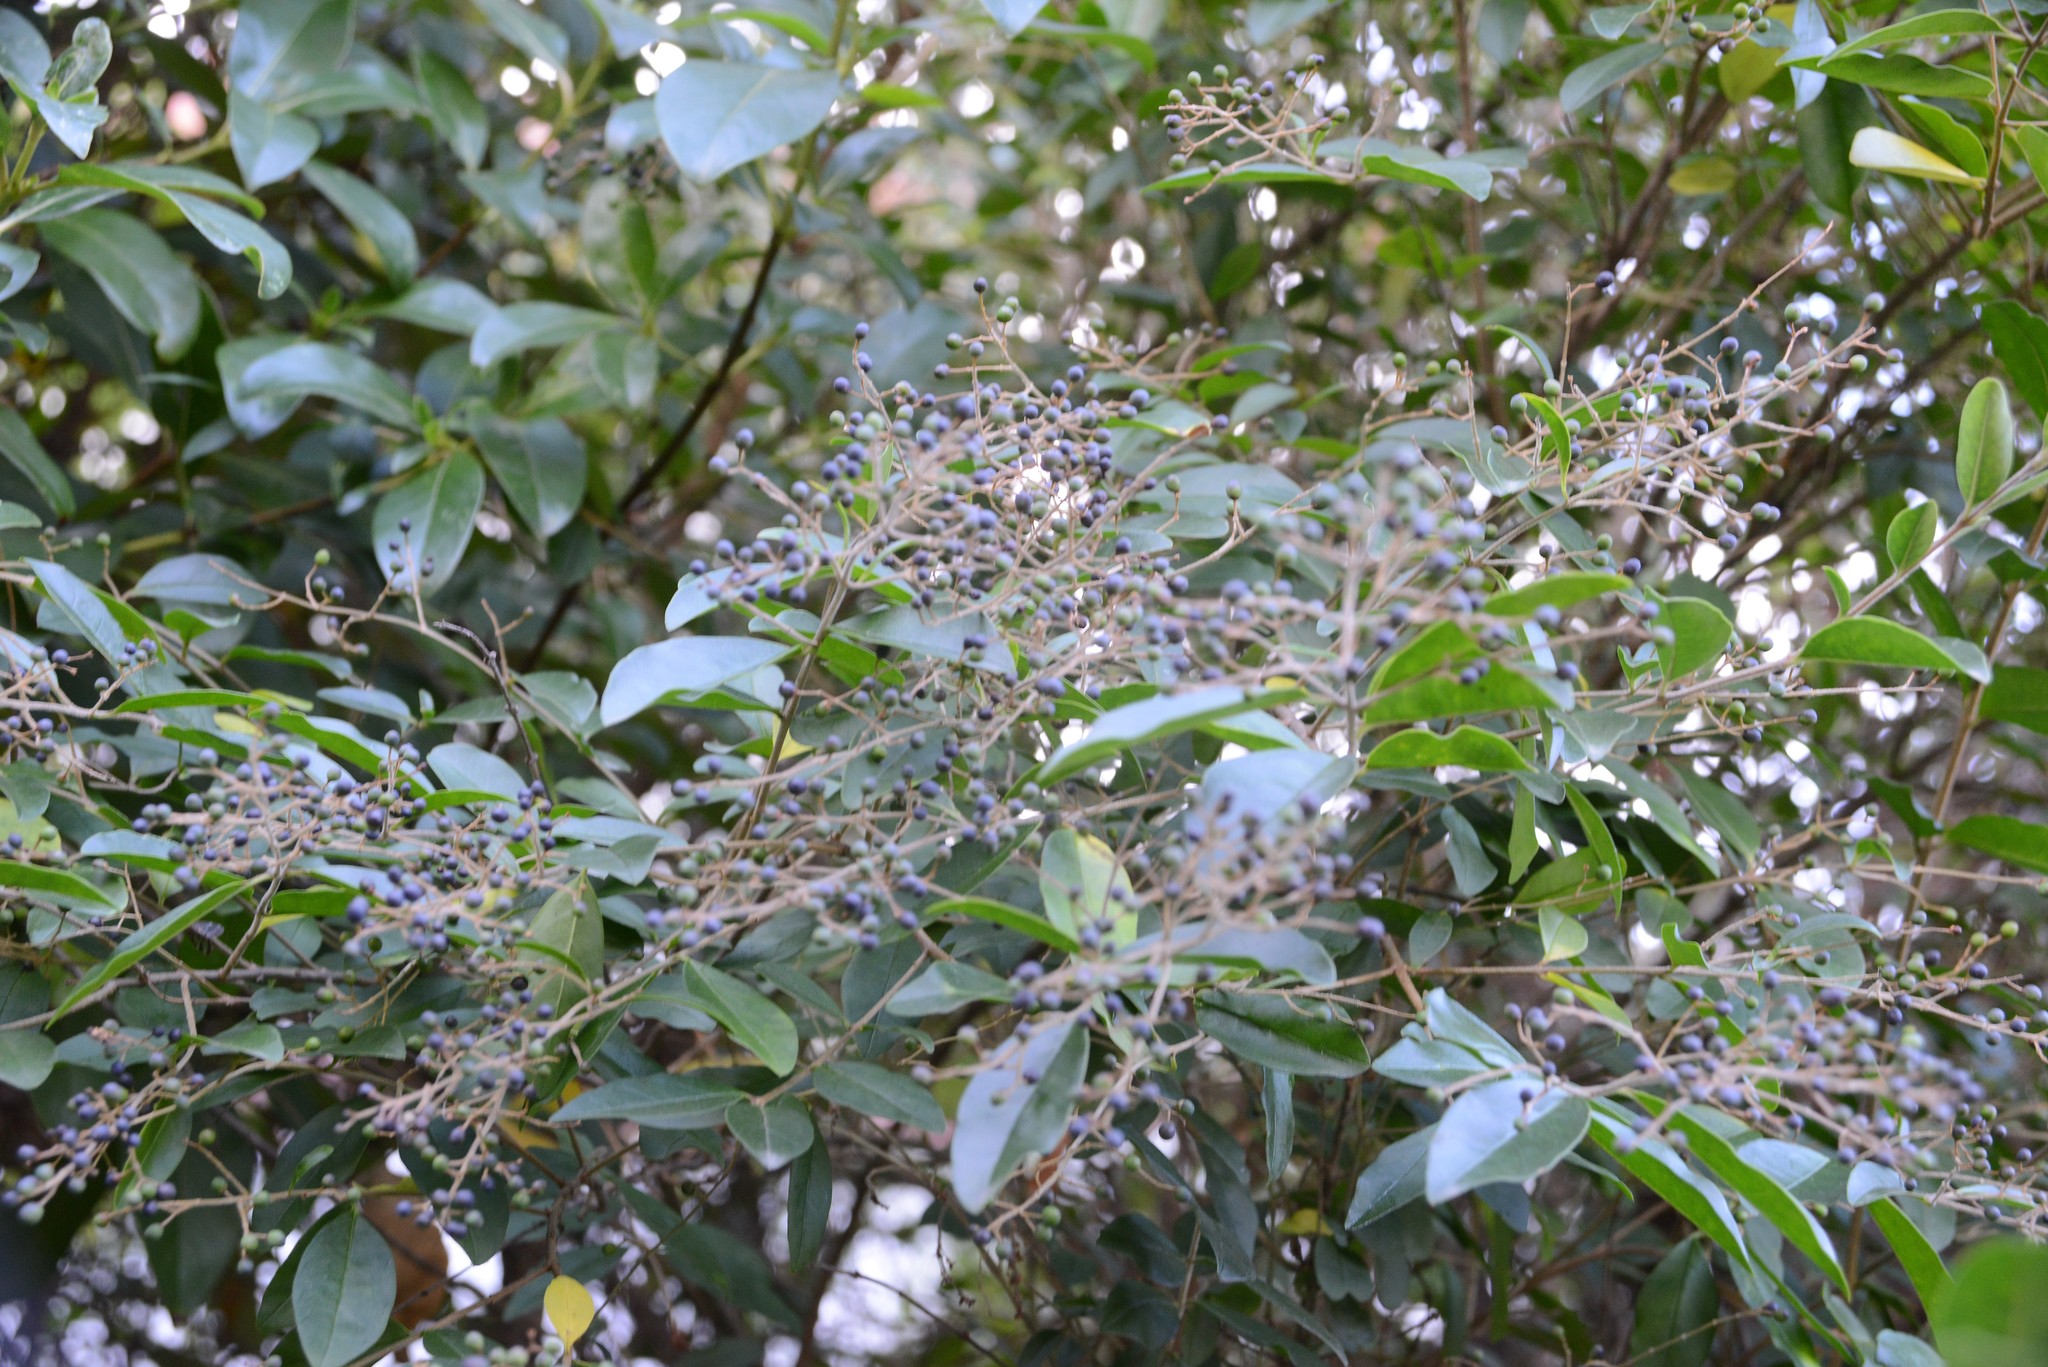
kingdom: Plantae
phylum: Tracheophyta
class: Magnoliopsida
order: Lamiales
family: Oleaceae
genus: Ligustrum
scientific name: Ligustrum vulgare
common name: Wild privet
